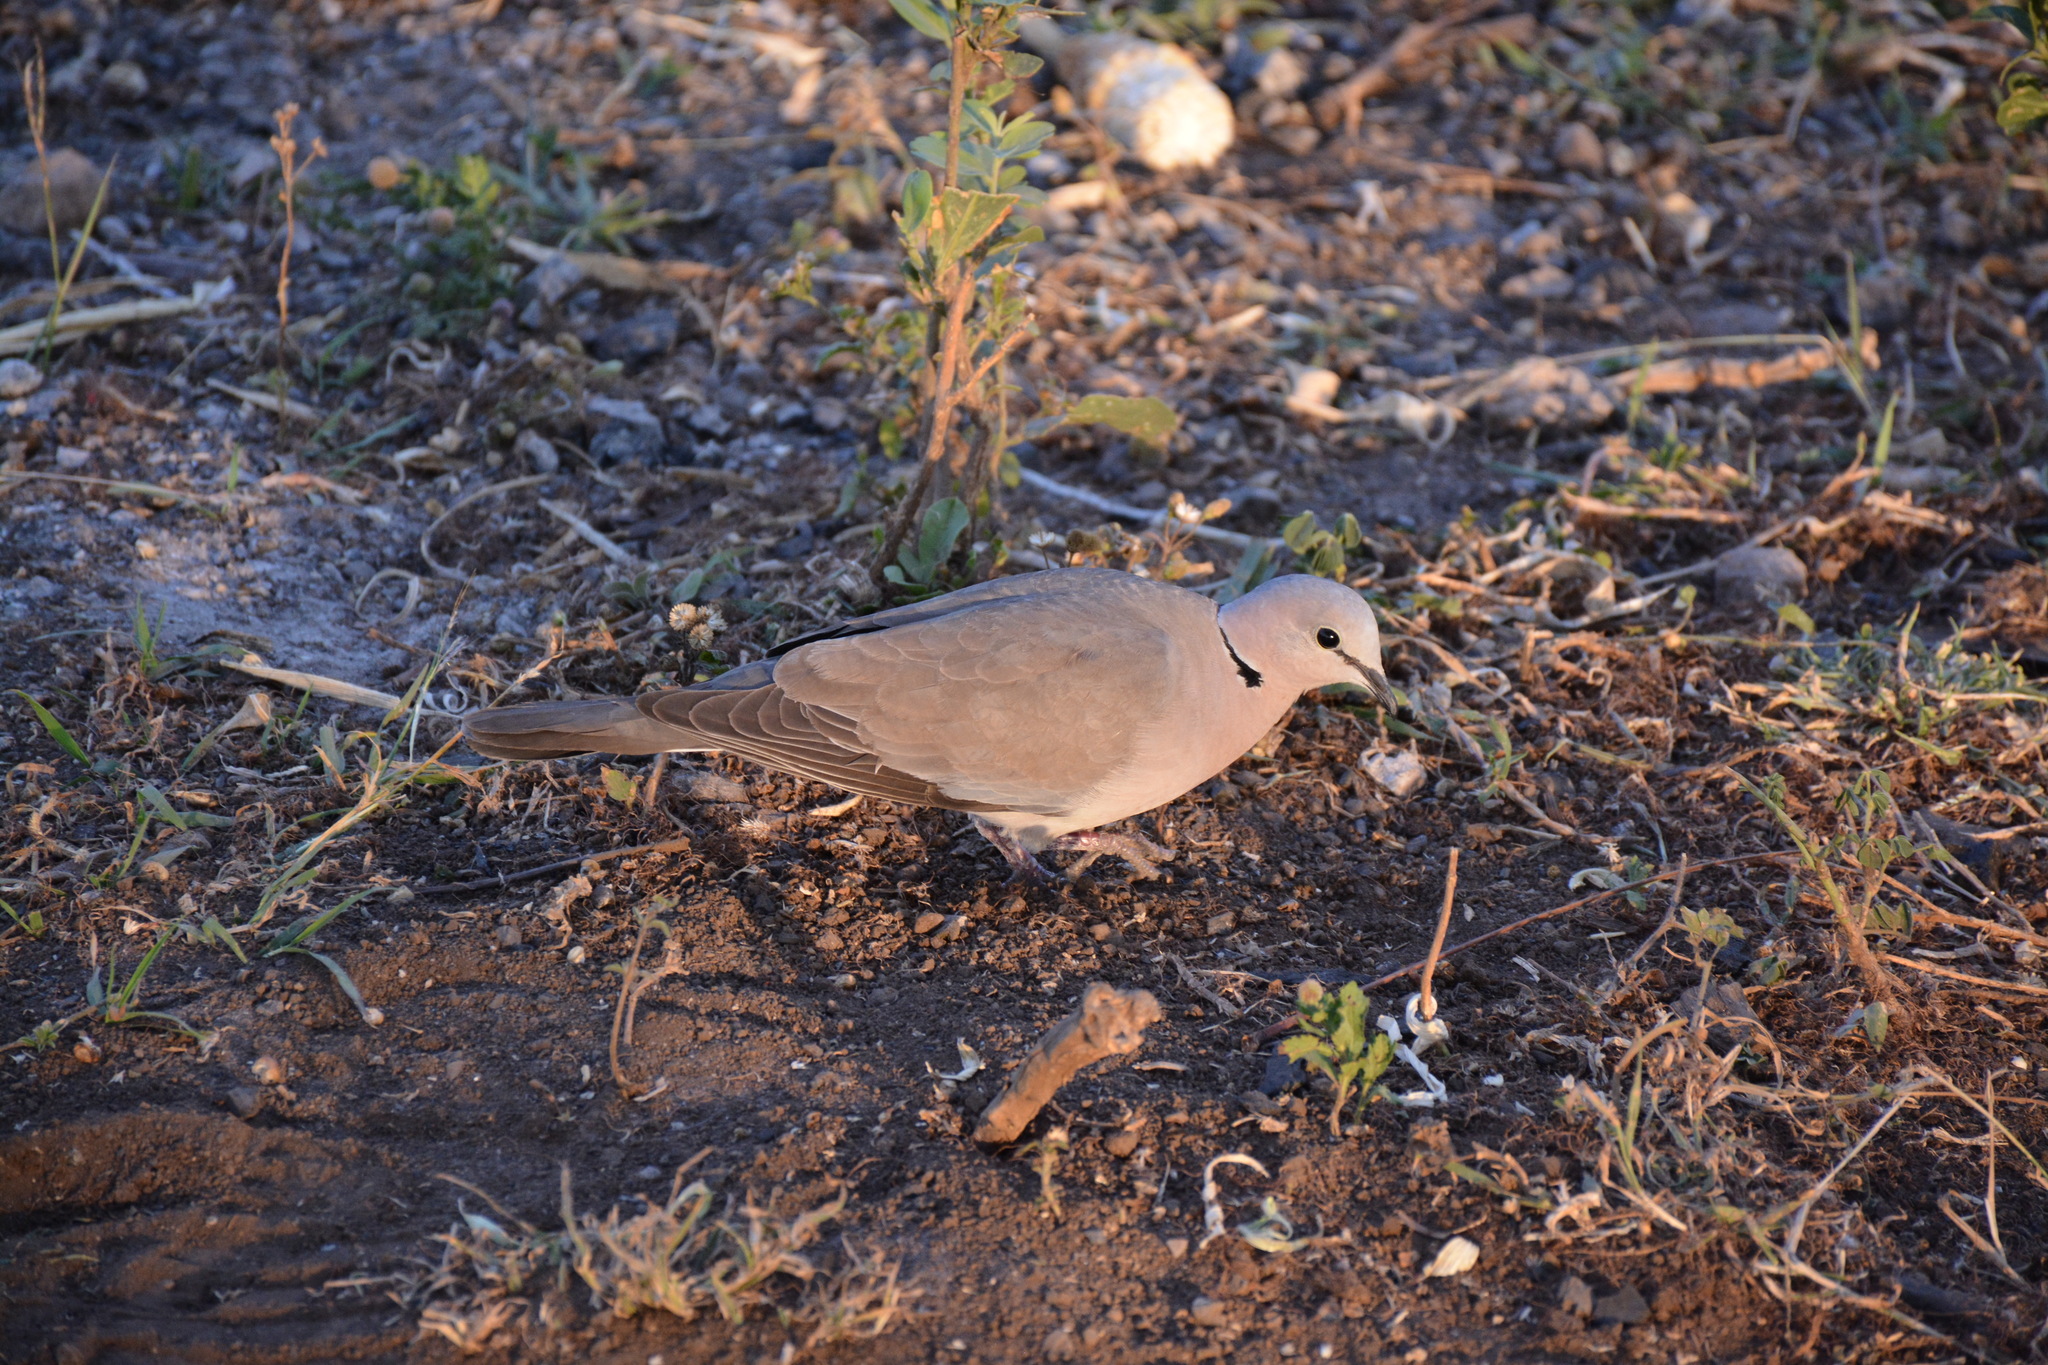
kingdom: Animalia
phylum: Chordata
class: Aves
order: Columbiformes
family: Columbidae
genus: Streptopelia
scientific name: Streptopelia capicola
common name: Ring-necked dove
